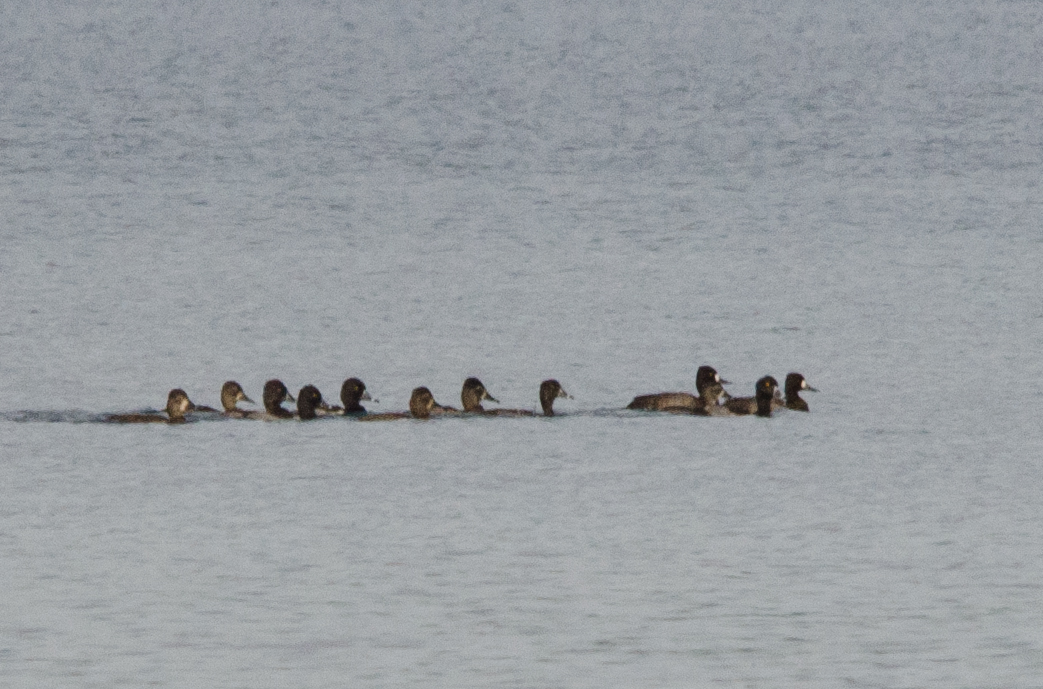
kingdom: Animalia
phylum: Chordata
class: Aves
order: Anseriformes
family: Anatidae
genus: Aythya
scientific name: Aythya affinis
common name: Lesser scaup
